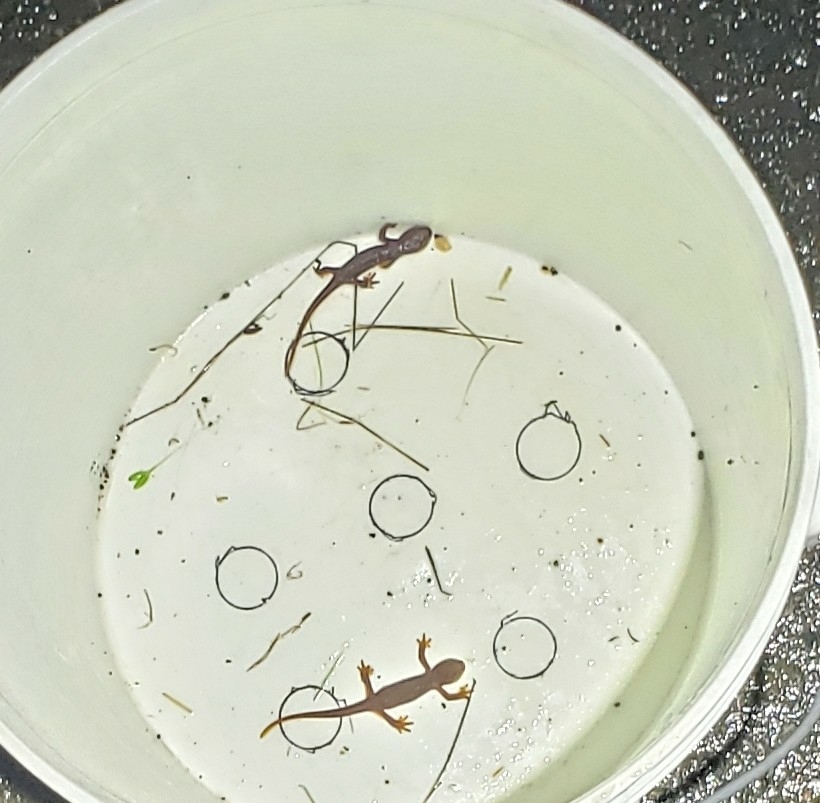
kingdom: Animalia
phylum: Chordata
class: Amphibia
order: Caudata
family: Salamandridae
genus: Taricha
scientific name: Taricha granulosa
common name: Roughskin newt
